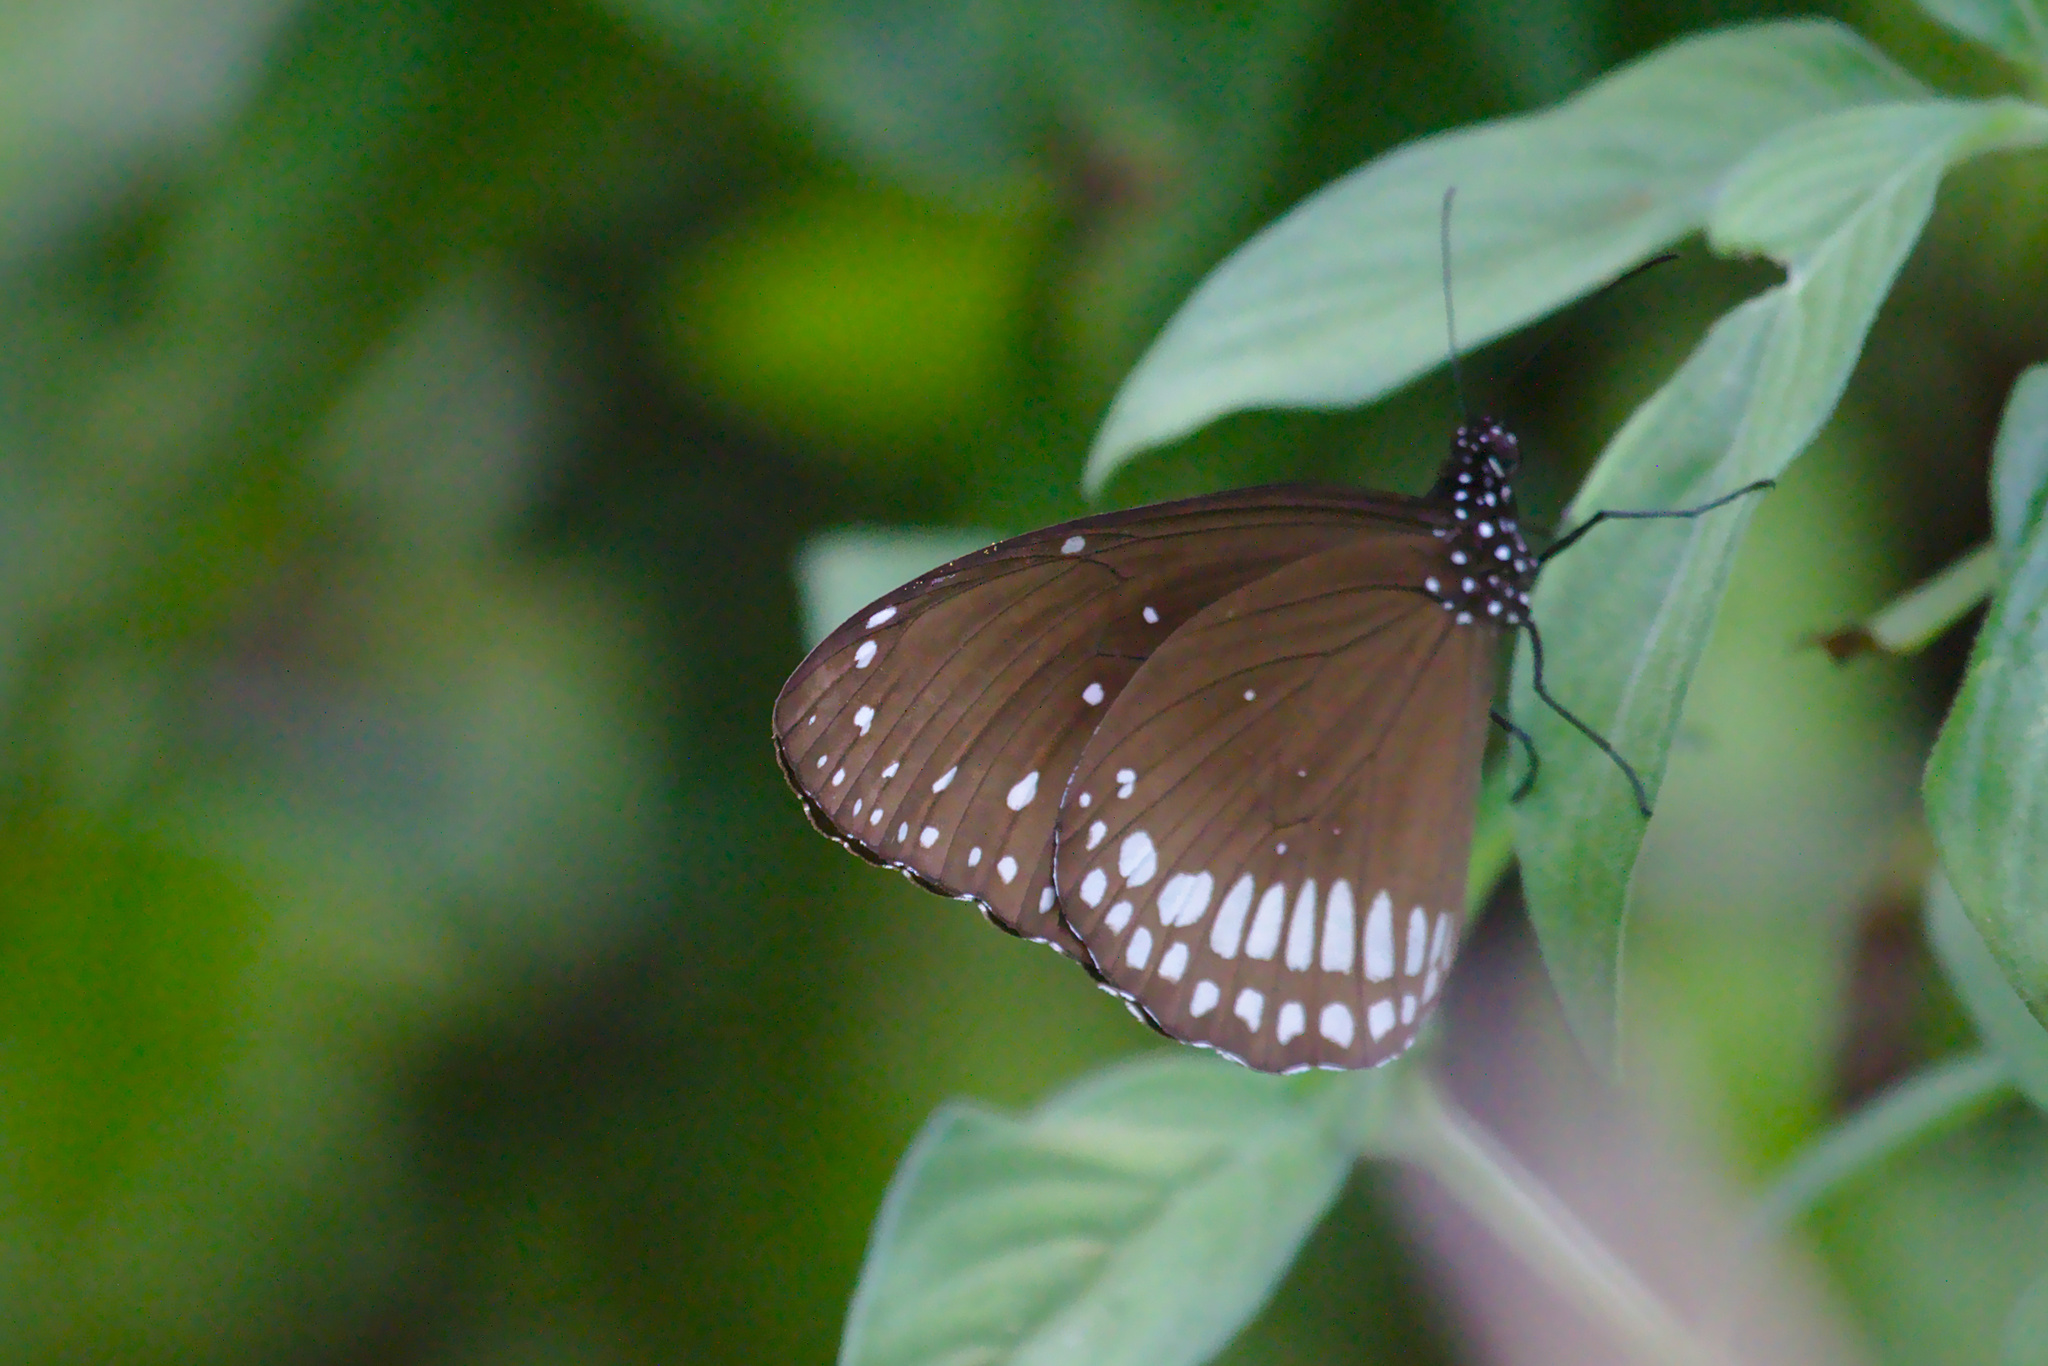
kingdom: Animalia
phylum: Arthropoda
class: Insecta
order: Lepidoptera
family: Nymphalidae
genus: Euploea
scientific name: Euploea core
